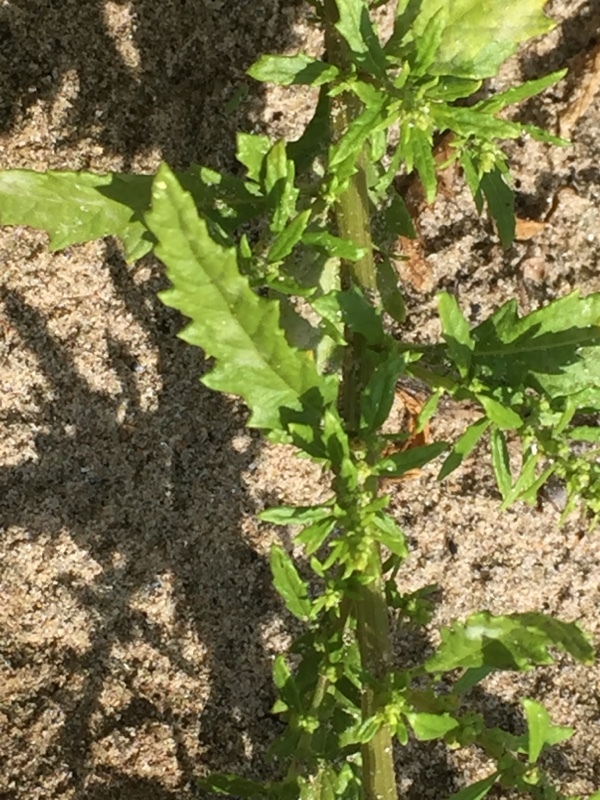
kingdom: Plantae
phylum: Tracheophyta
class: Magnoliopsida
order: Caryophyllales
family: Amaranthaceae
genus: Dysphania
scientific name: Dysphania ambrosioides
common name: Wormseed
